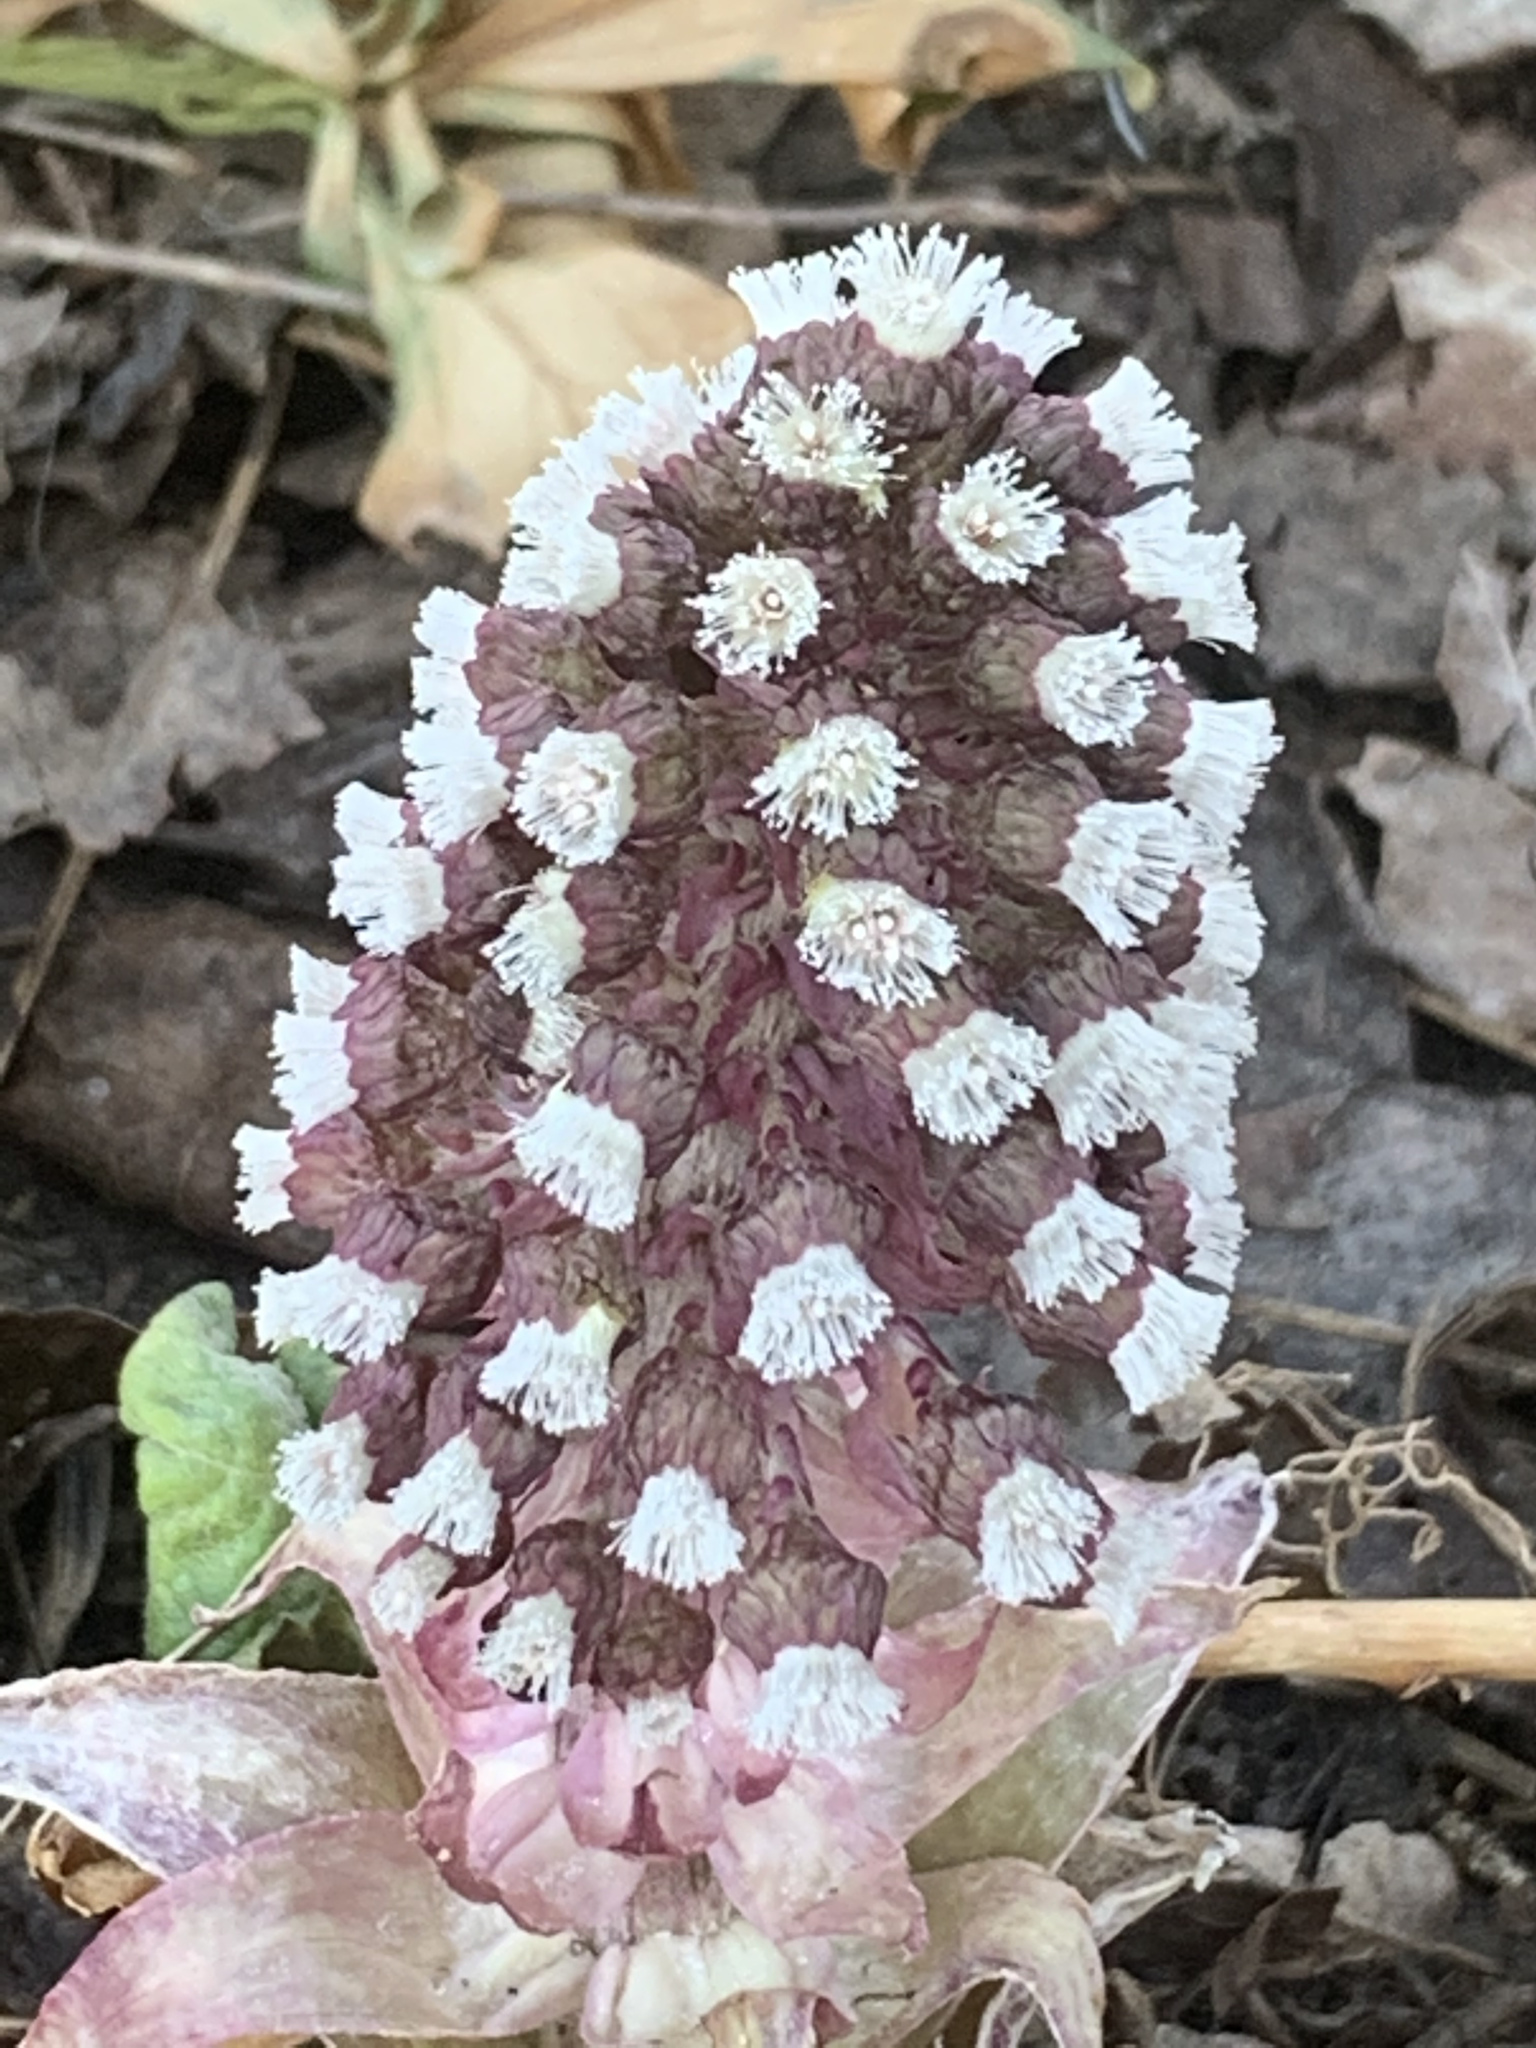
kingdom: Plantae
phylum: Tracheophyta
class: Magnoliopsida
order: Asterales
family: Asteraceae
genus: Petasites
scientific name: Petasites hybridus
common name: Butterbur
